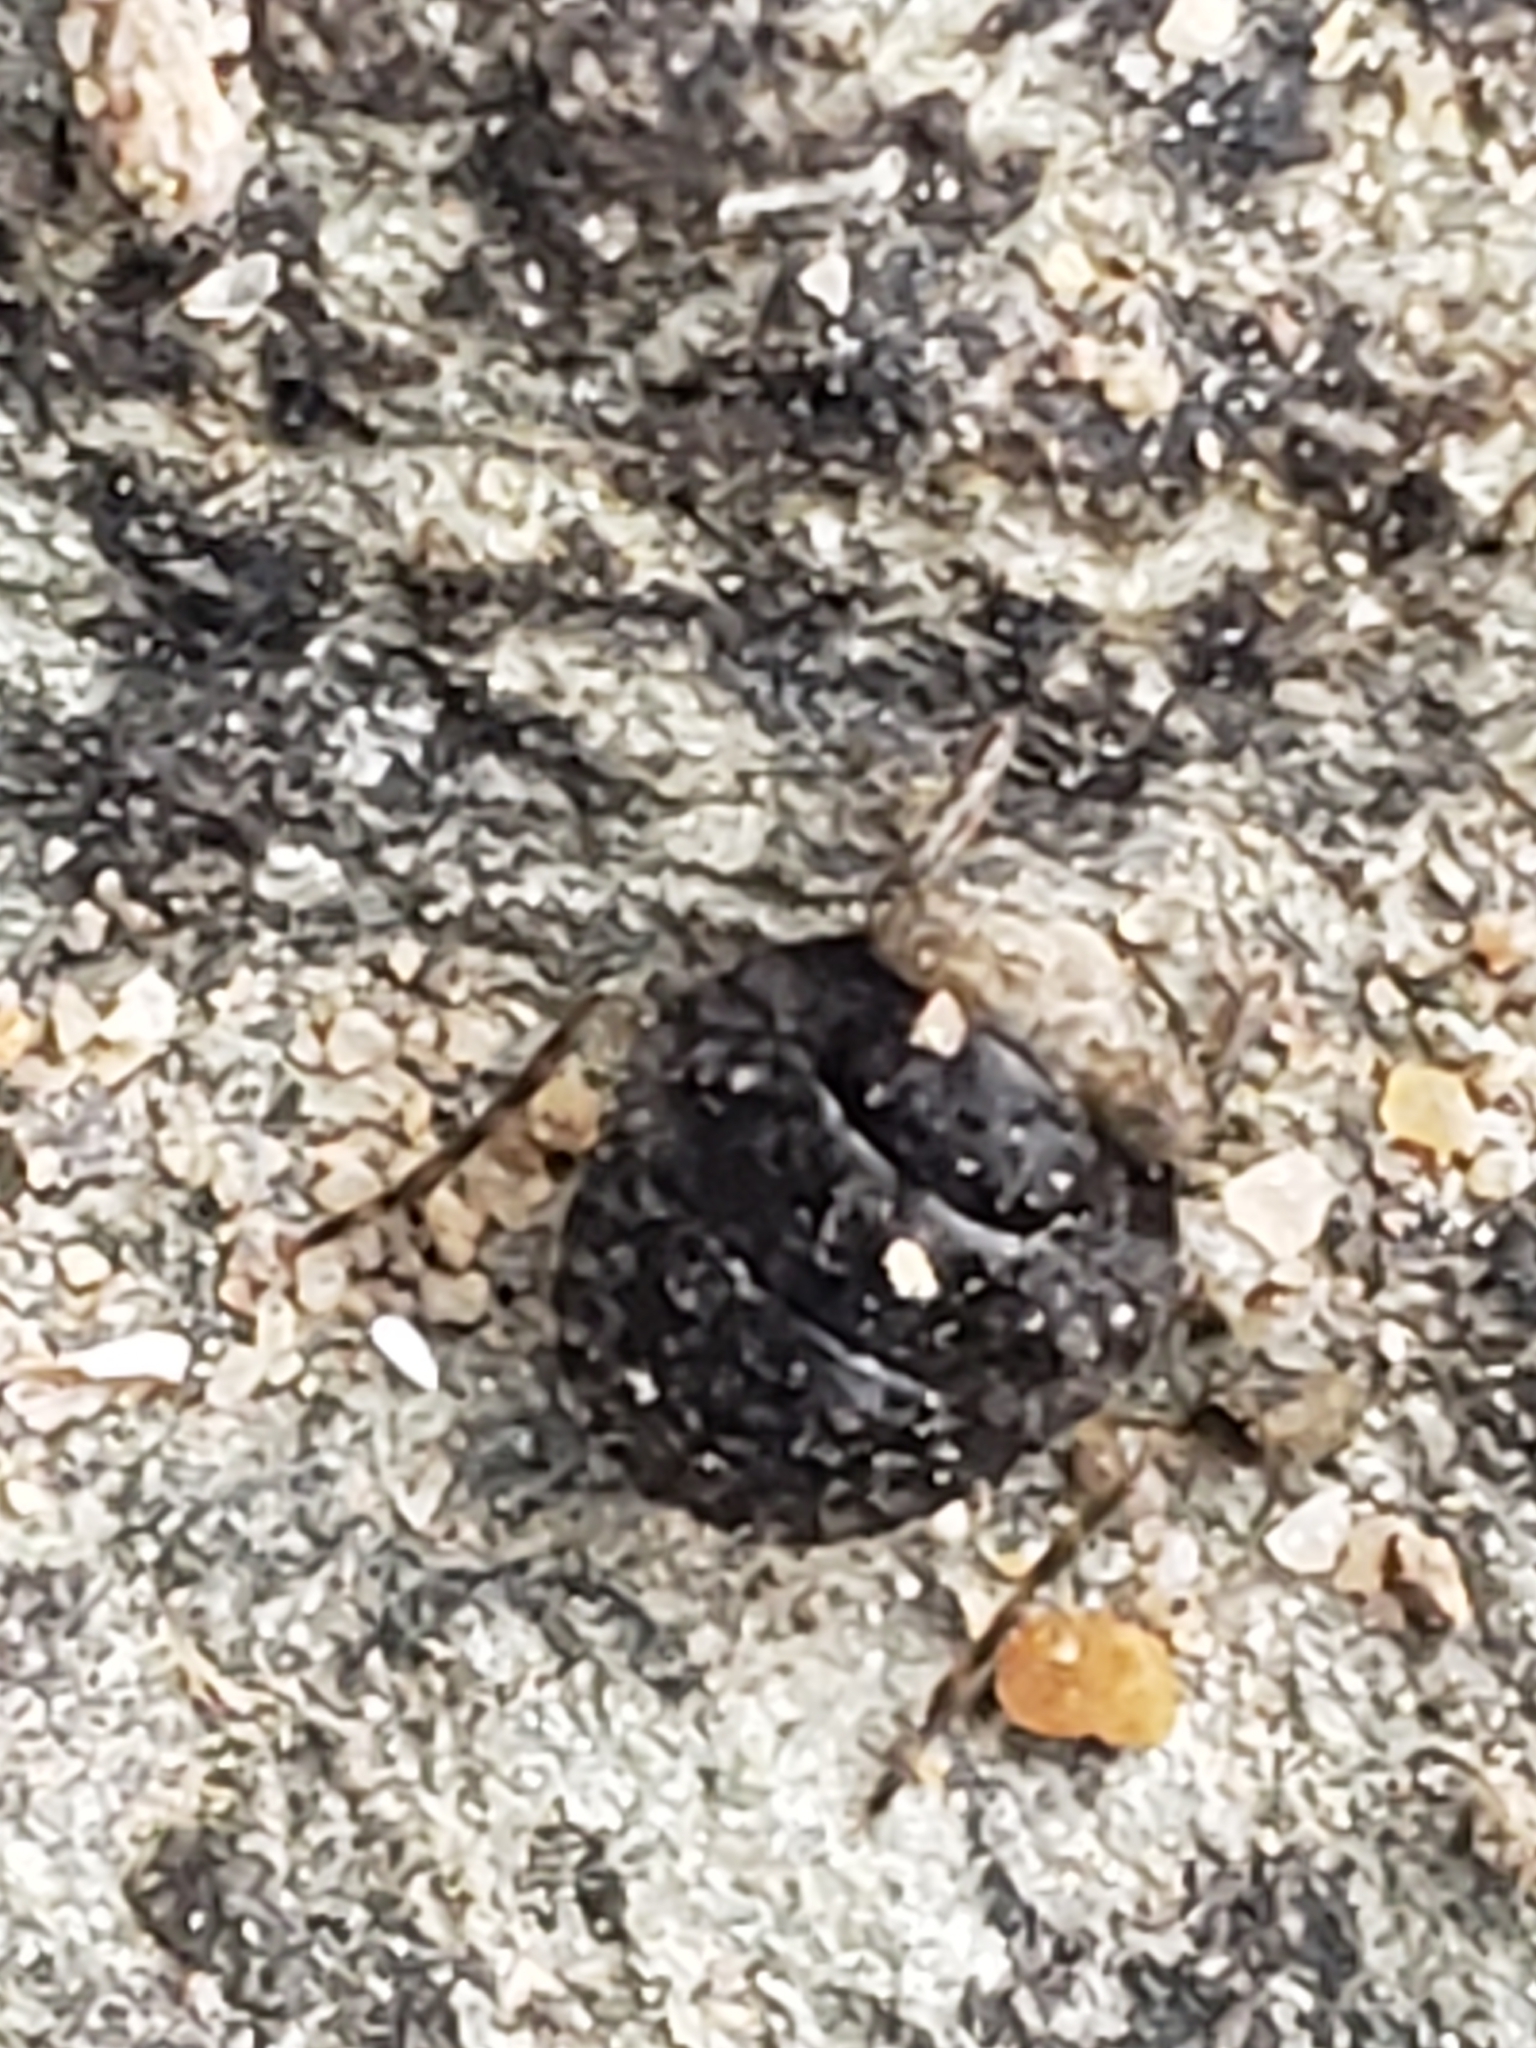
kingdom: Animalia
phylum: Arthropoda
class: Insecta
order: Hemiptera
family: Gelastocoridae
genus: Gelastocoris
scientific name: Gelastocoris oculatus
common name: Toad bug
